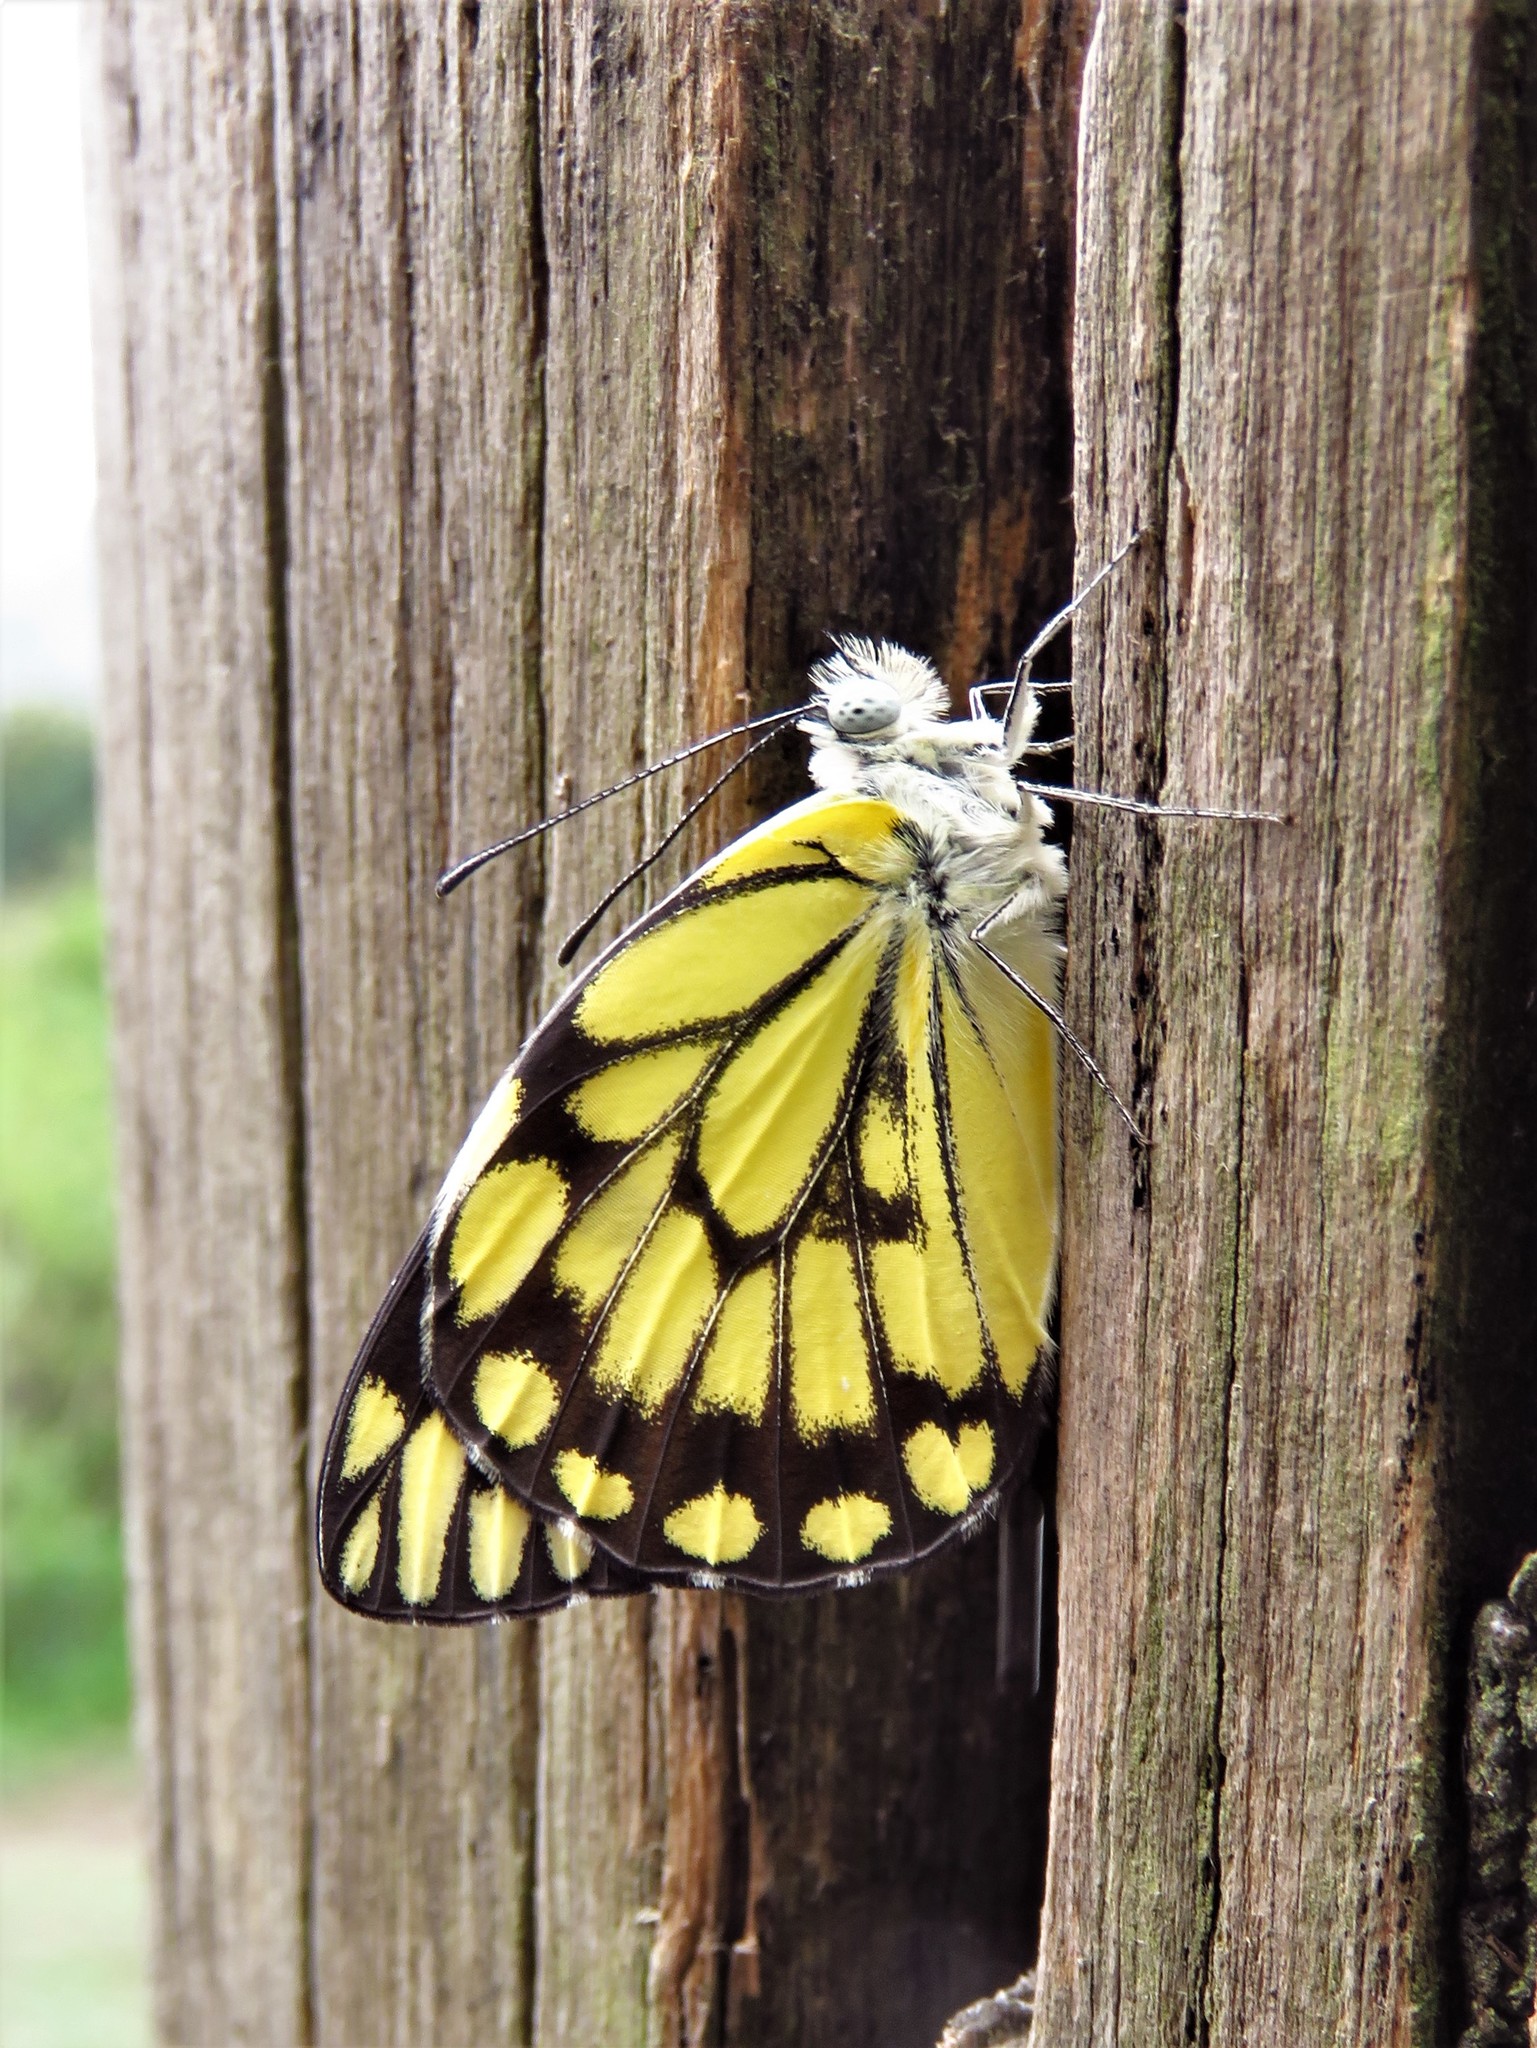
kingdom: Animalia
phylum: Arthropoda
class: Insecta
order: Lepidoptera
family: Pieridae
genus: Belenois
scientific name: Belenois creona
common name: African caper white
